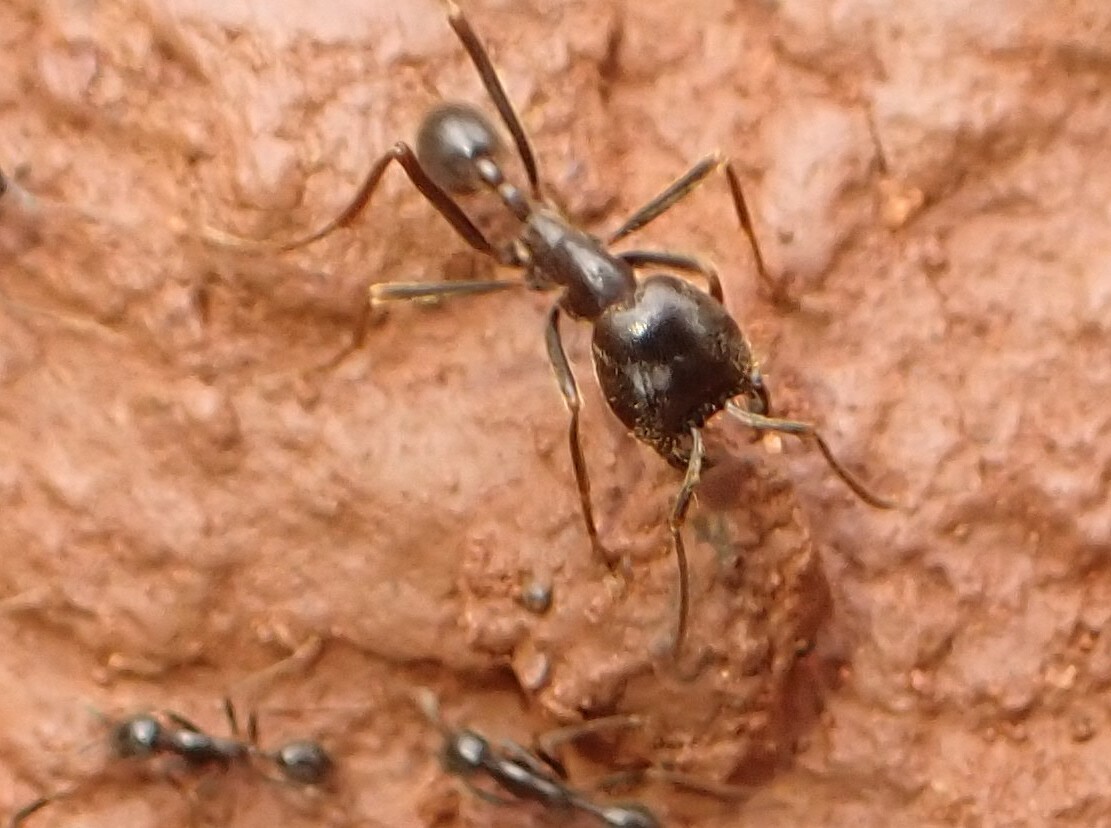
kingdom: Animalia
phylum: Arthropoda
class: Insecta
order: Hymenoptera
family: Formicidae
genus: Labidus
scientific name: Labidus praedator
